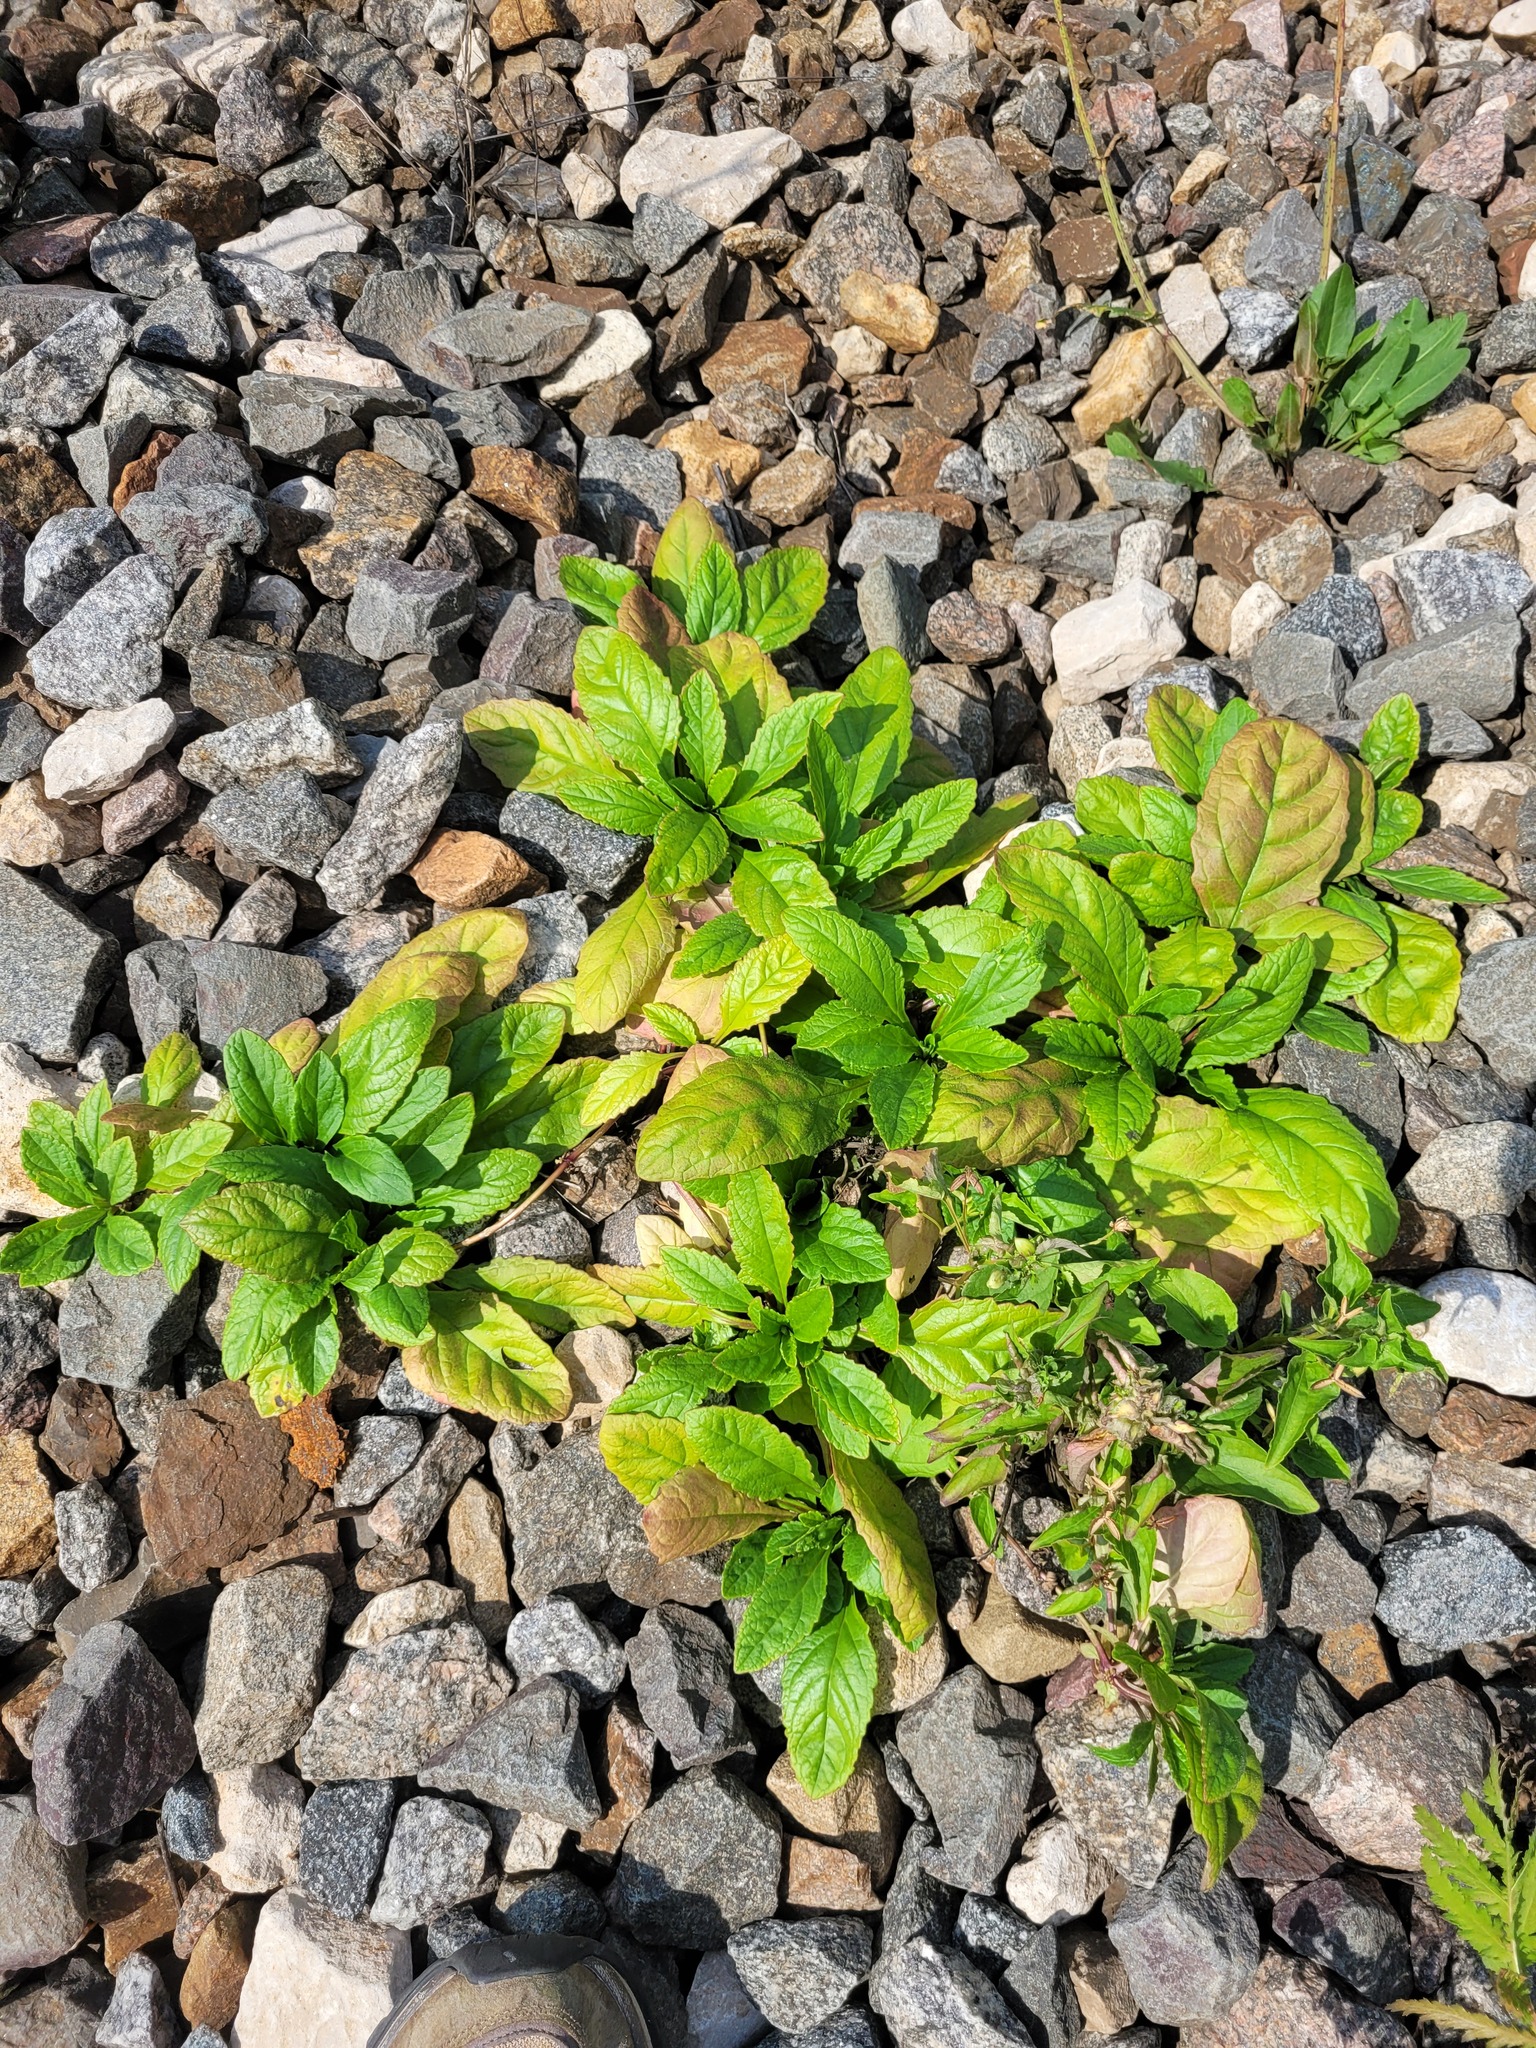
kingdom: Plantae
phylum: Tracheophyta
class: Magnoliopsida
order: Lamiales
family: Lamiaceae
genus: Ajuga
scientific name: Ajuga reptans
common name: Bugle
